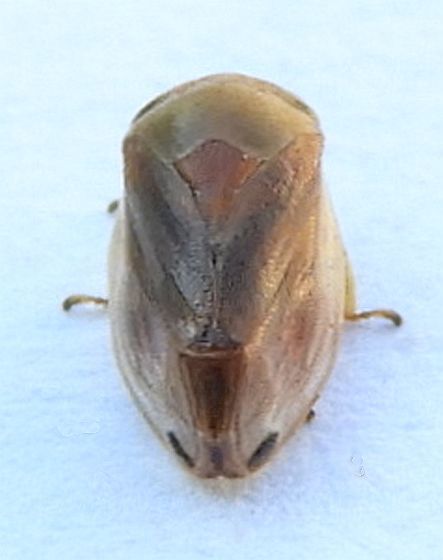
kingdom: Animalia
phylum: Arthropoda
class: Insecta
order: Hemiptera
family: Clastopteridae
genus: Clastoptera
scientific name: Clastoptera testacea
